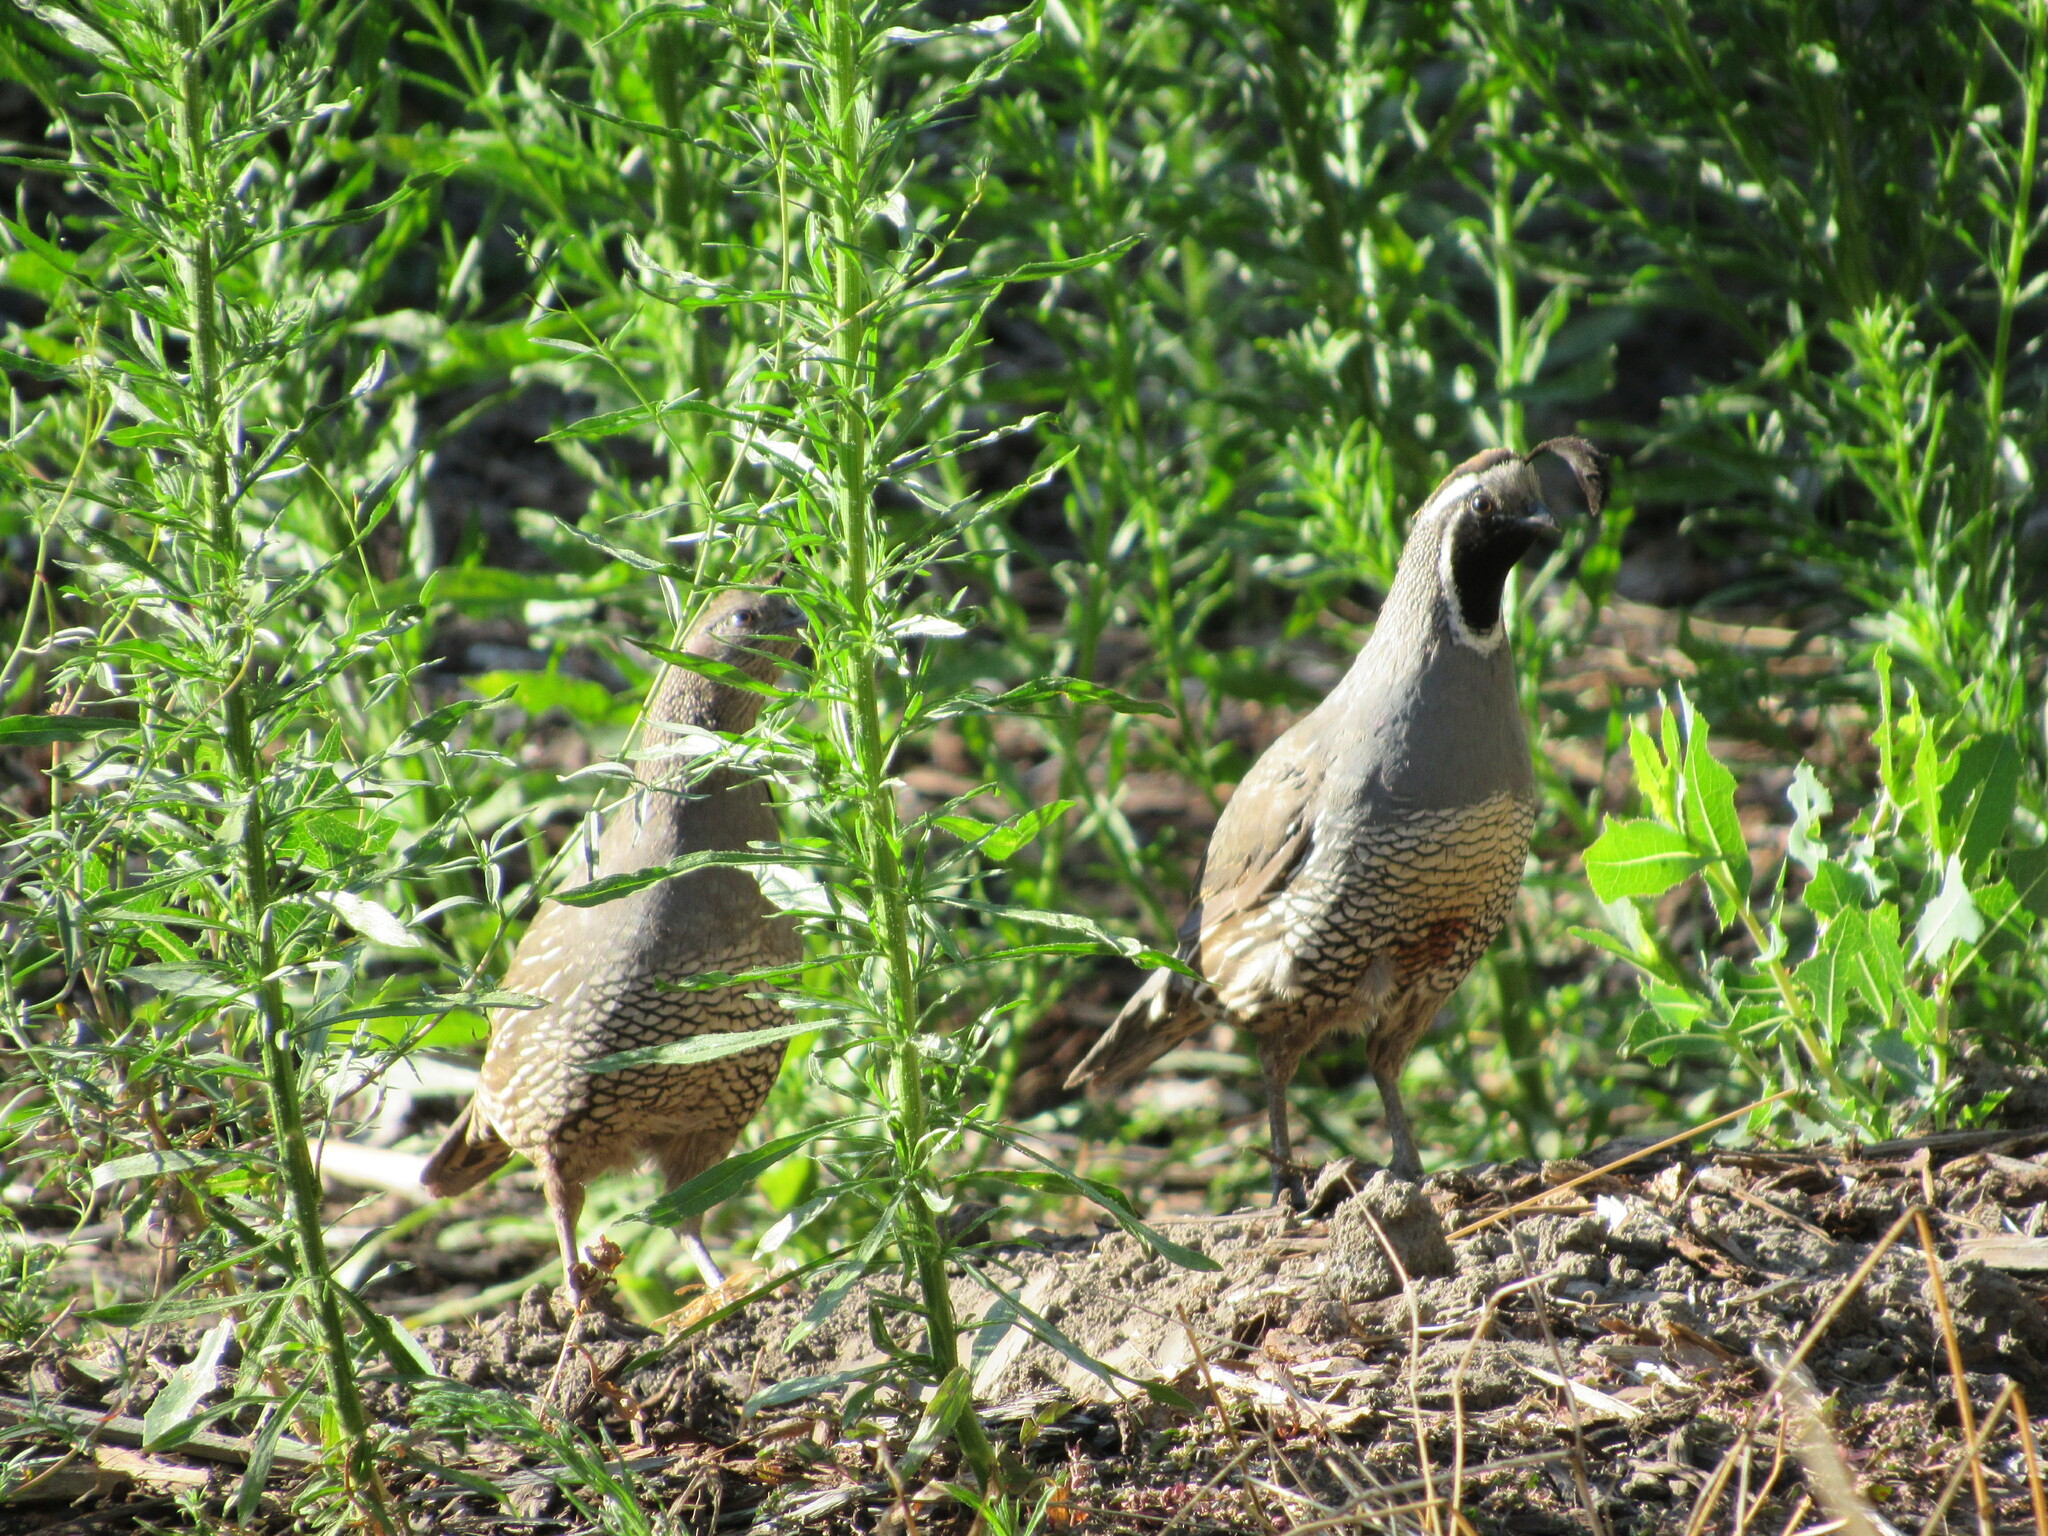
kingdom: Animalia
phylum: Chordata
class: Aves
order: Galliformes
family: Odontophoridae
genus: Callipepla
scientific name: Callipepla californica
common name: California quail
